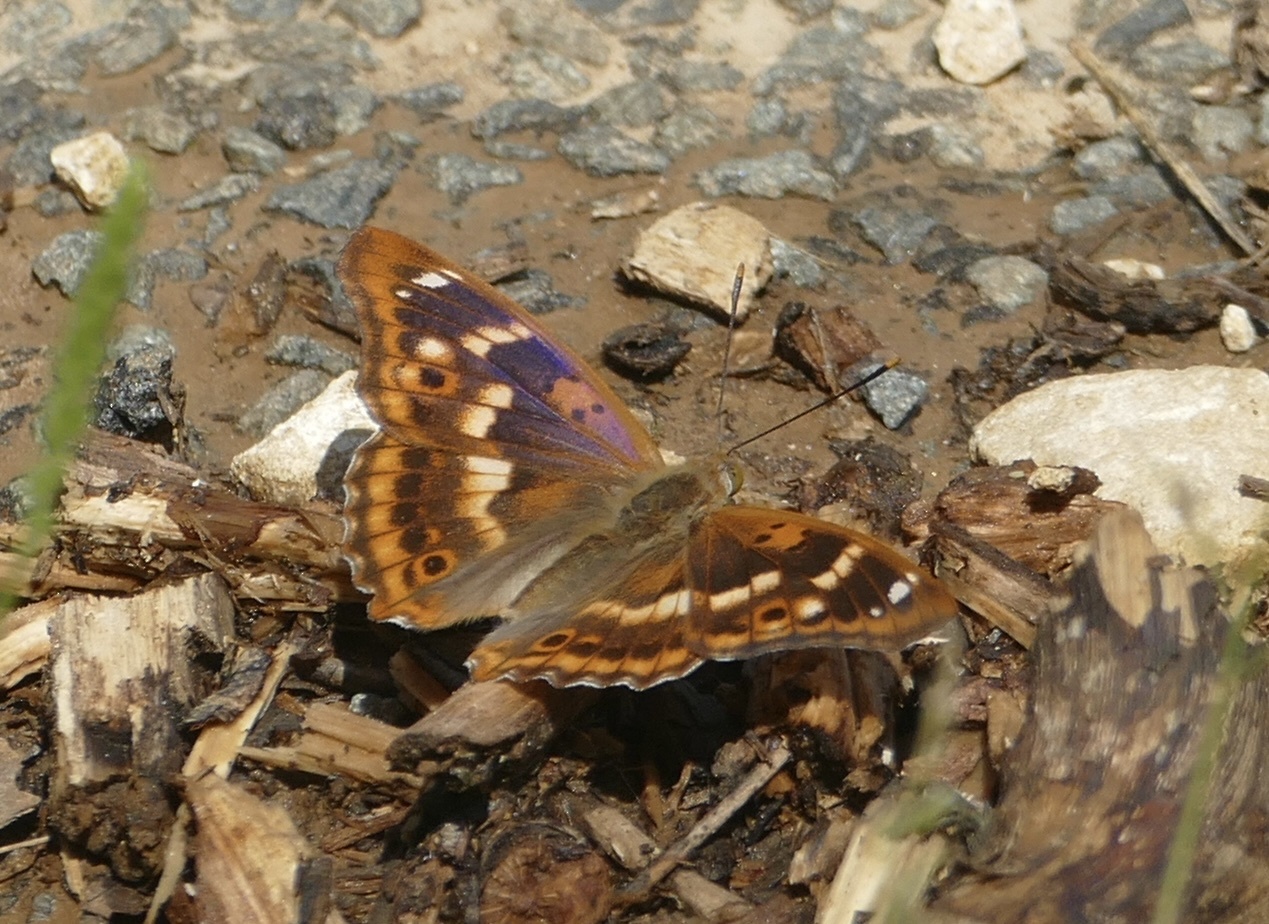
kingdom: Animalia
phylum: Arthropoda
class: Insecta
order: Lepidoptera
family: Nymphalidae
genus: Apatura
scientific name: Apatura ilia
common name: Lesser purple emperor
